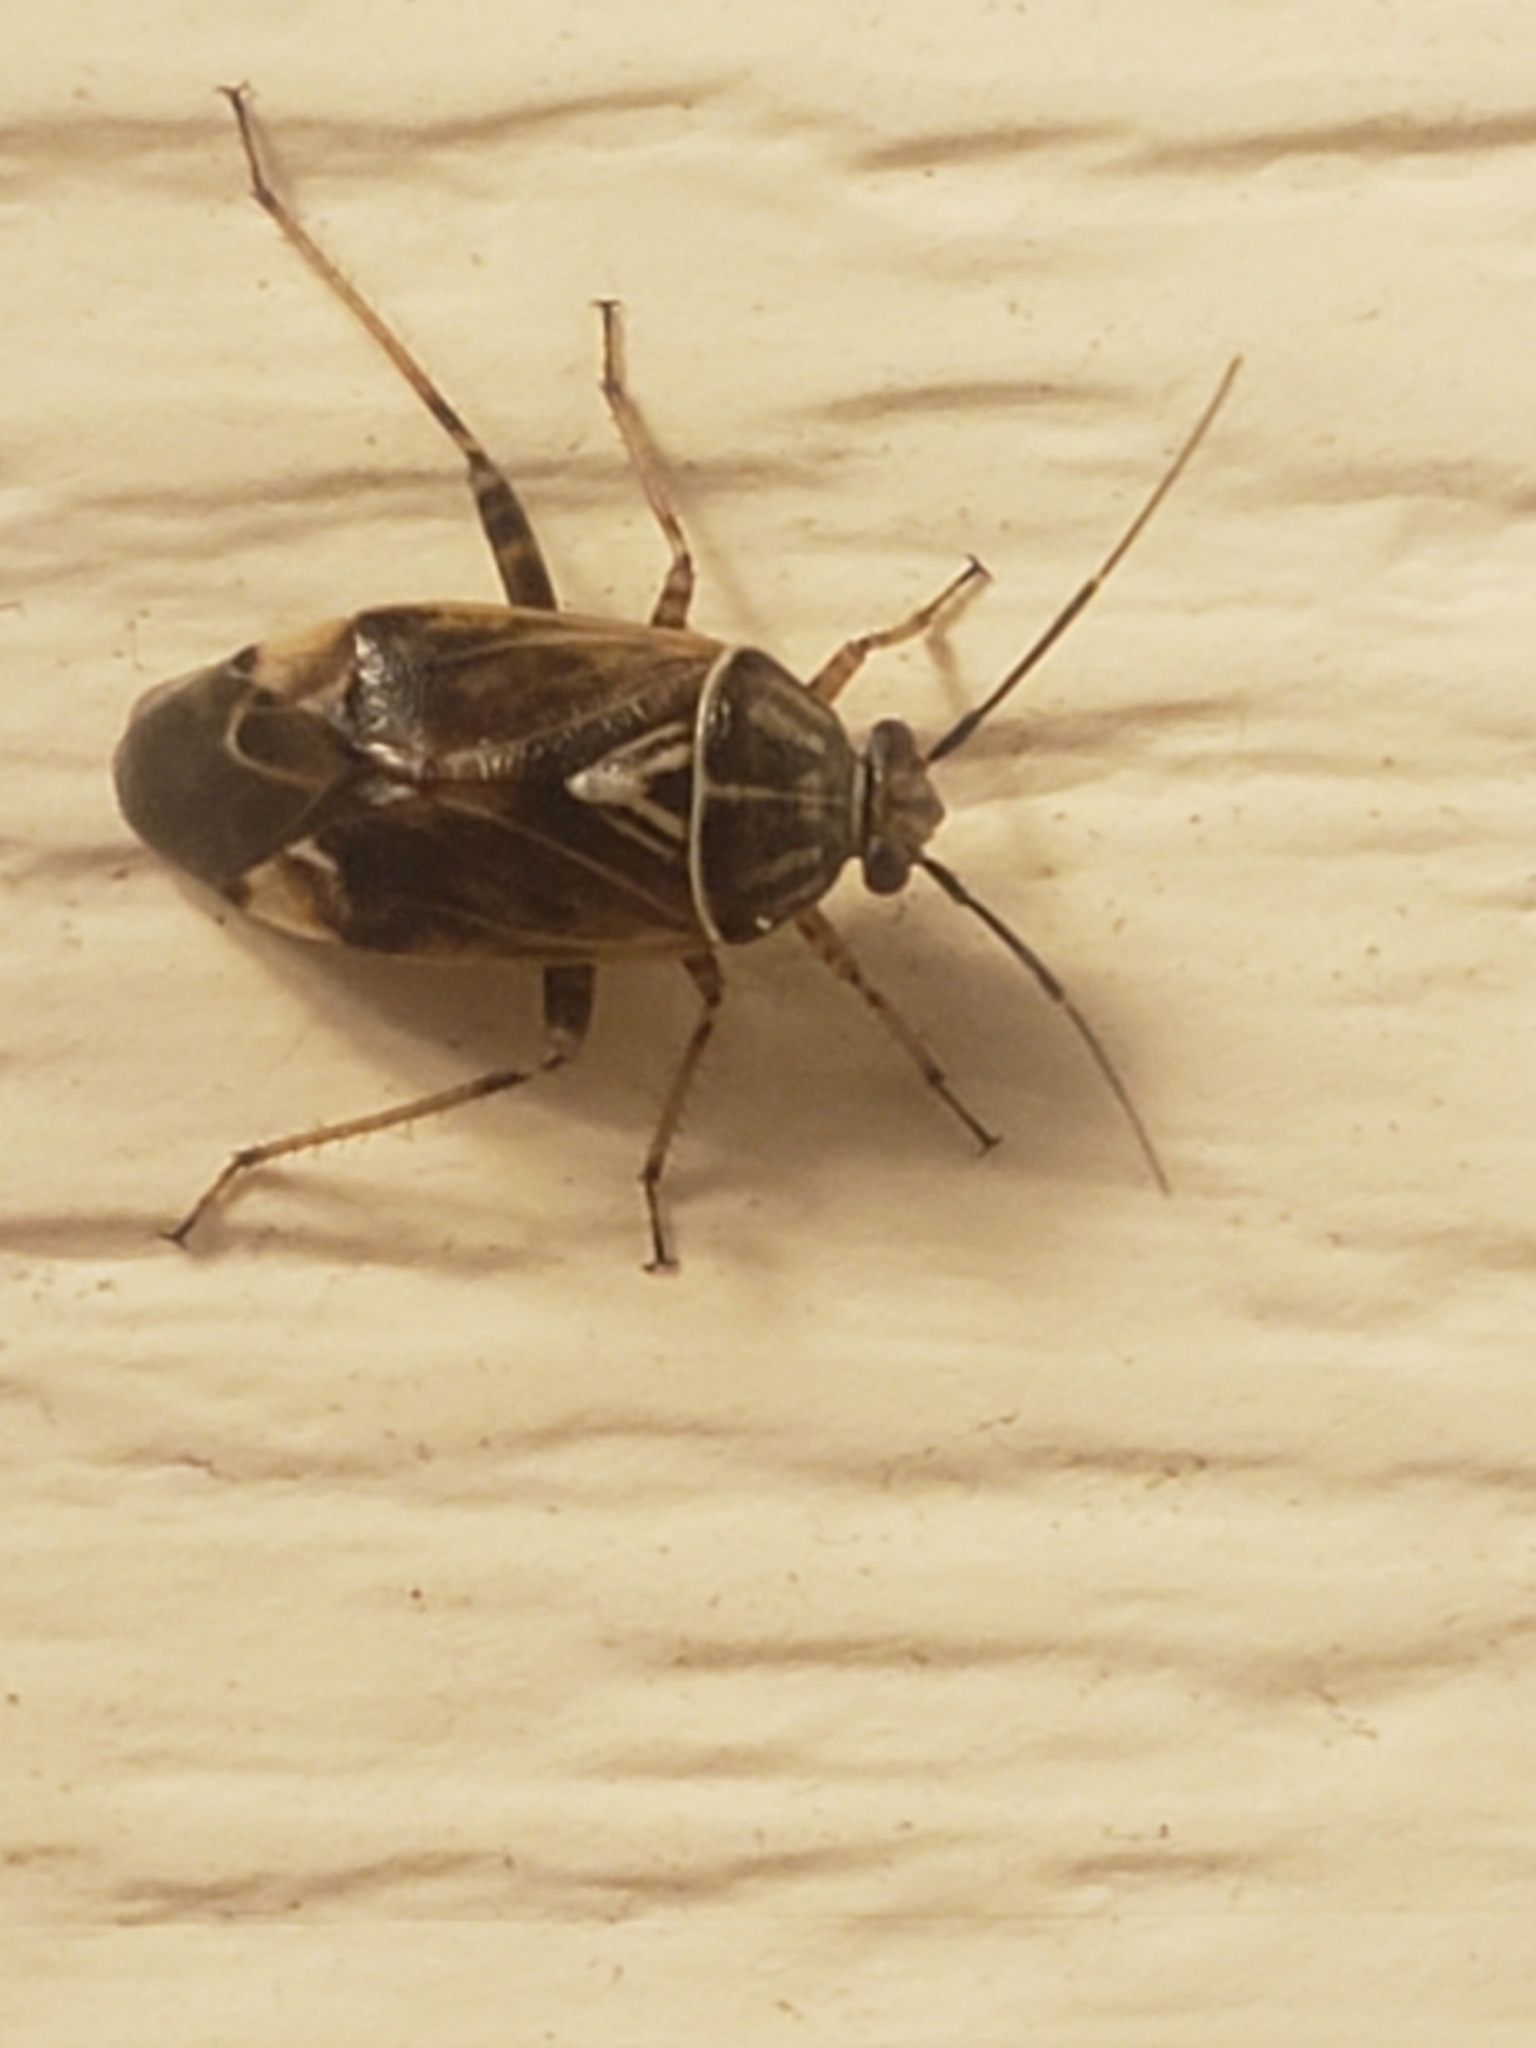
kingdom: Animalia
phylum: Arthropoda
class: Insecta
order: Hemiptera
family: Miridae
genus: Lygus
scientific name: Lygus lineolaris
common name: North american tarnished plant bug
